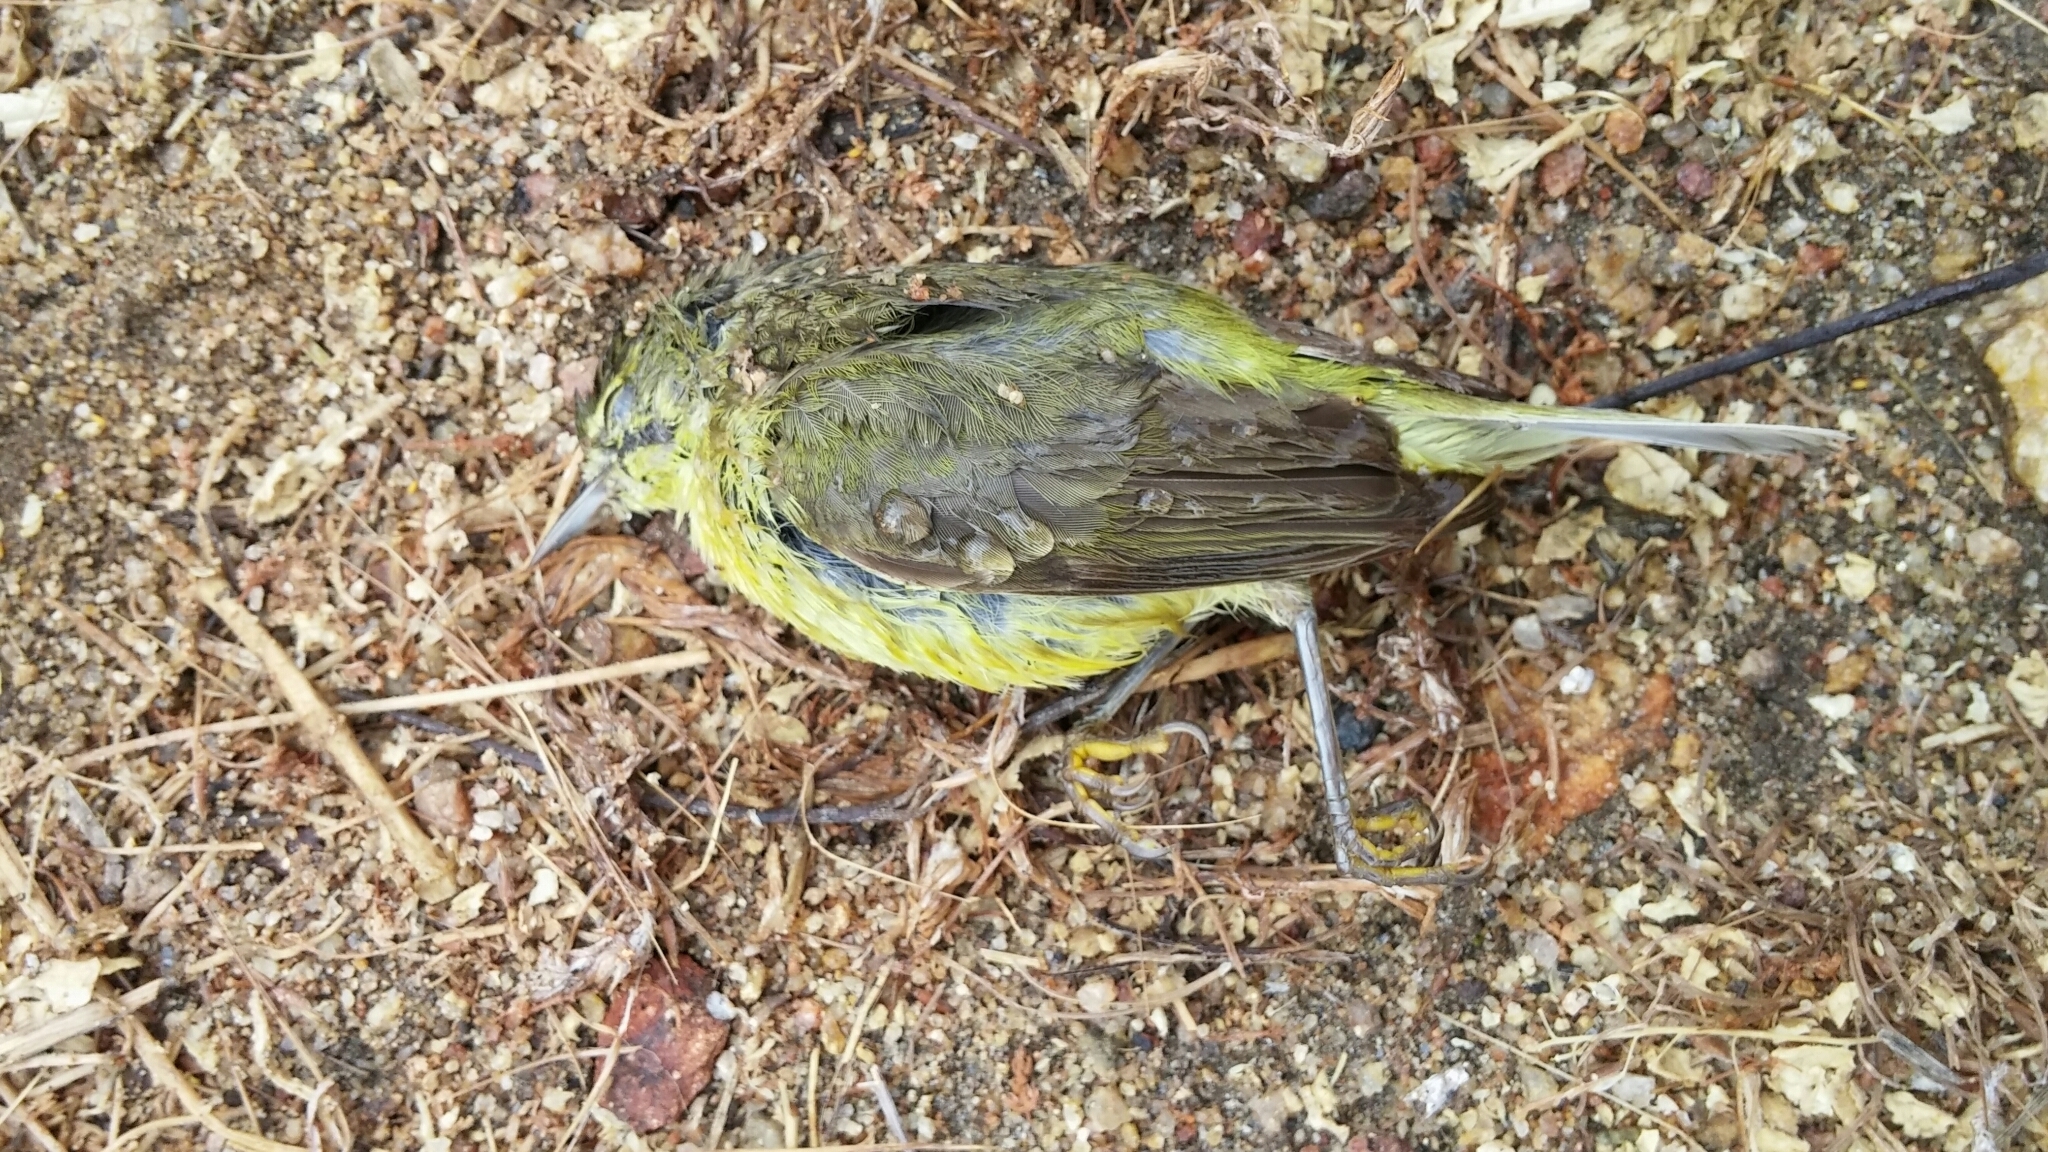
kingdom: Animalia
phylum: Chordata
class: Aves
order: Passeriformes
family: Parulidae
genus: Leiothlypis
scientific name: Leiothlypis celata
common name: Orange-crowned warbler
